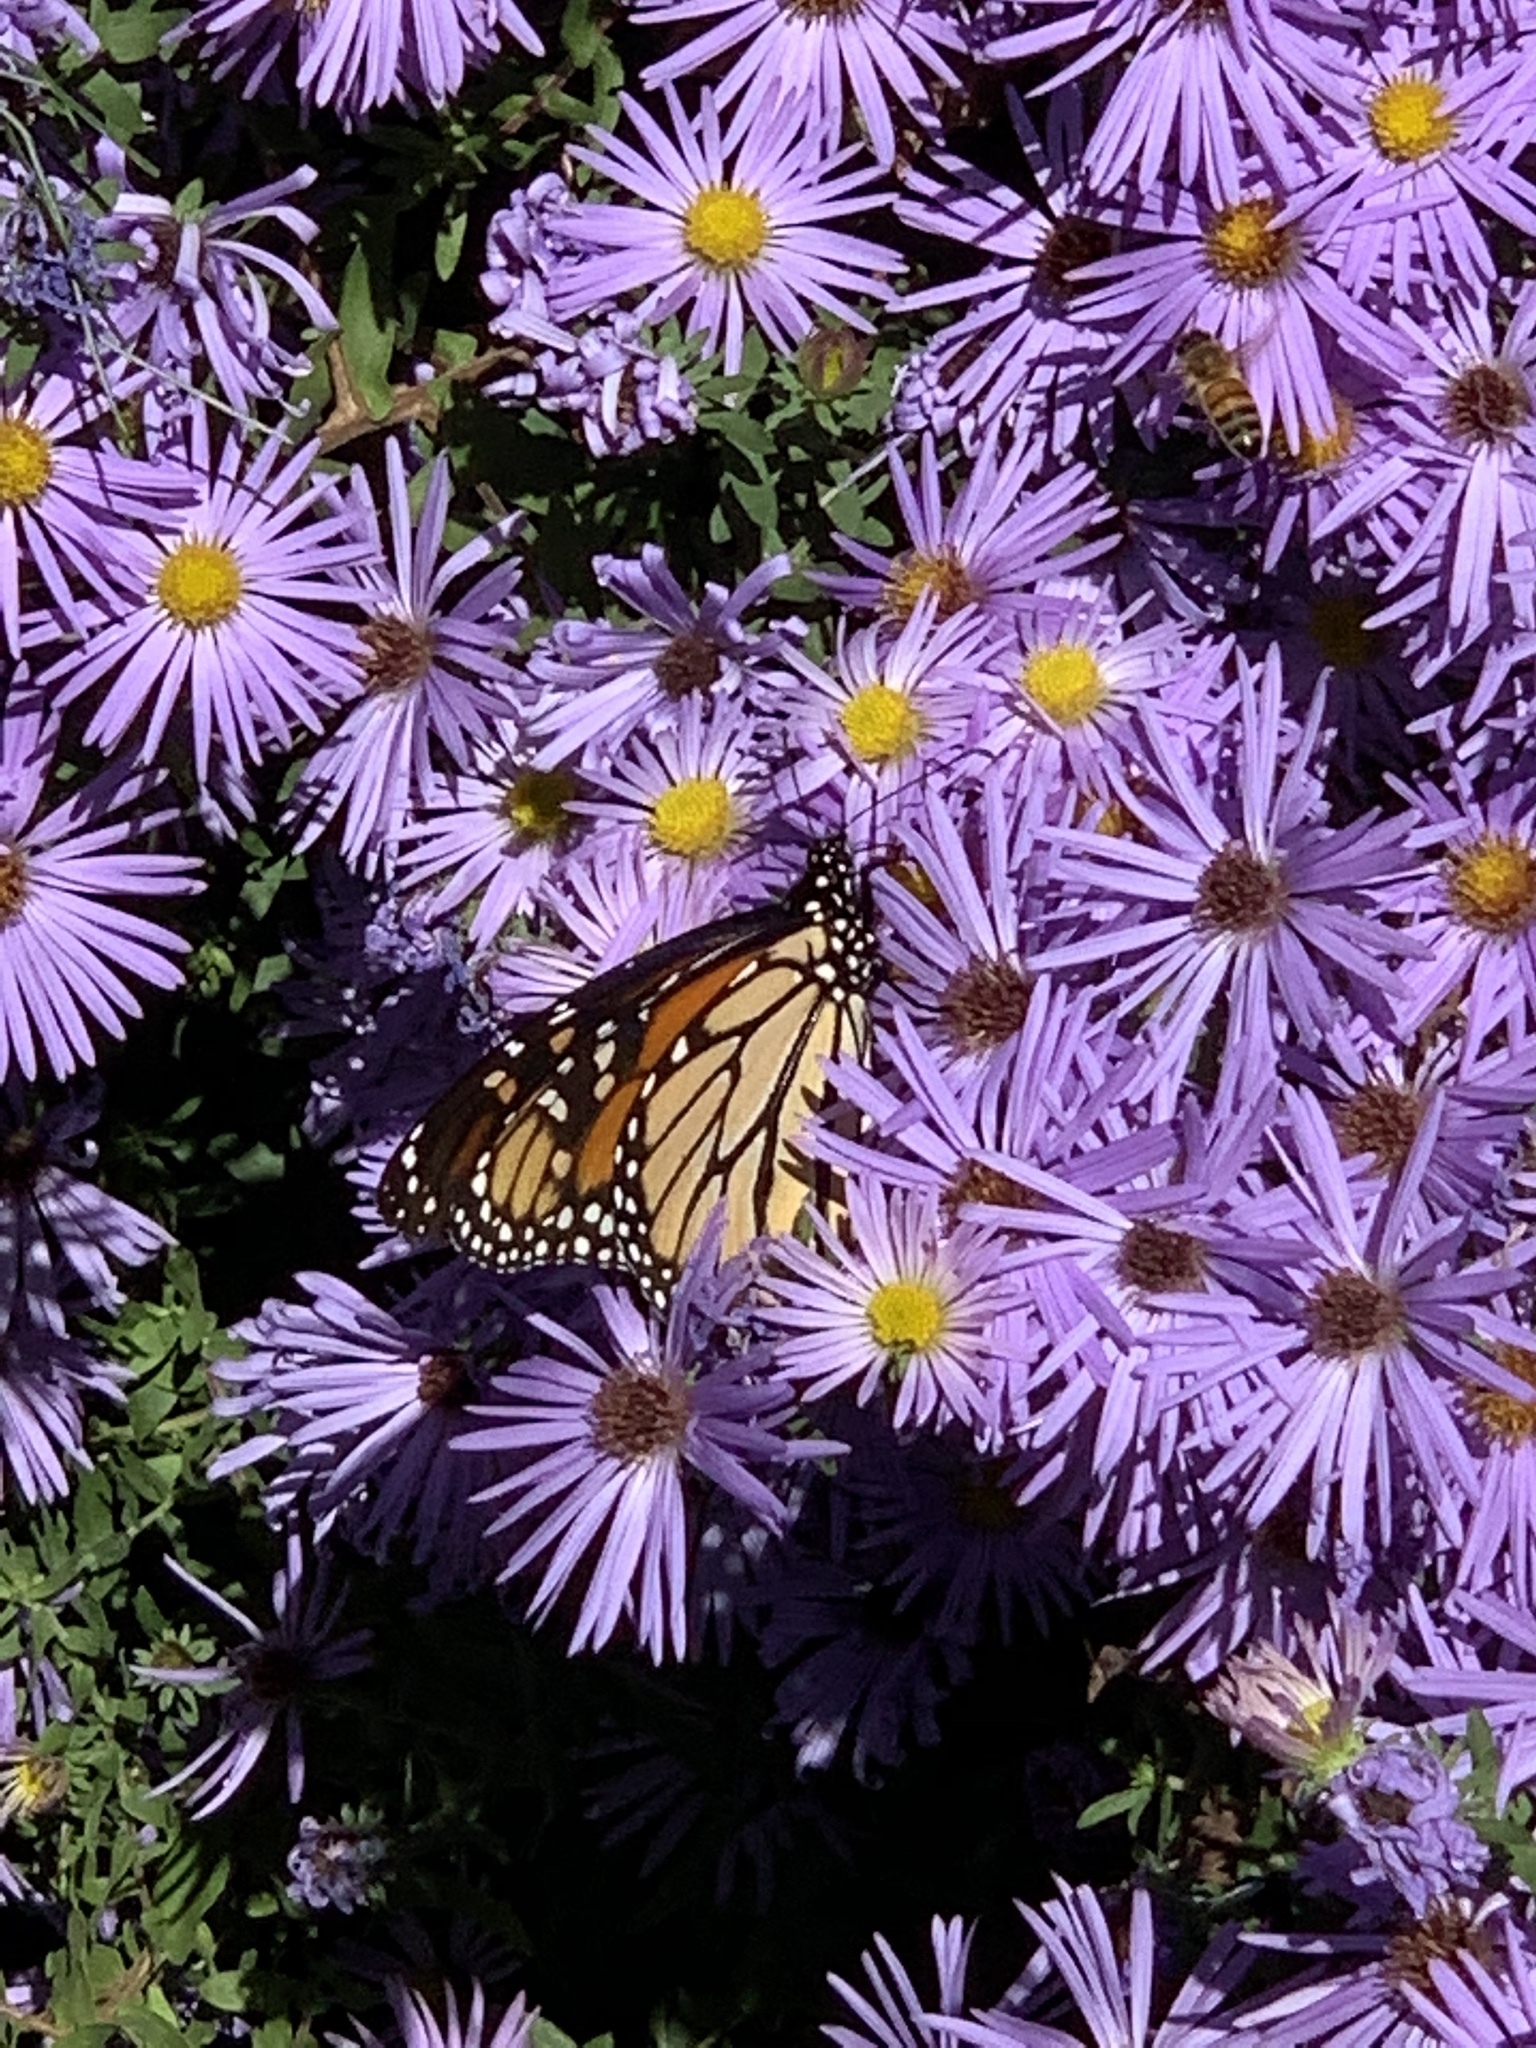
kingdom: Animalia
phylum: Arthropoda
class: Insecta
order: Lepidoptera
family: Nymphalidae
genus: Danaus
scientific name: Danaus plexippus
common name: Monarch
